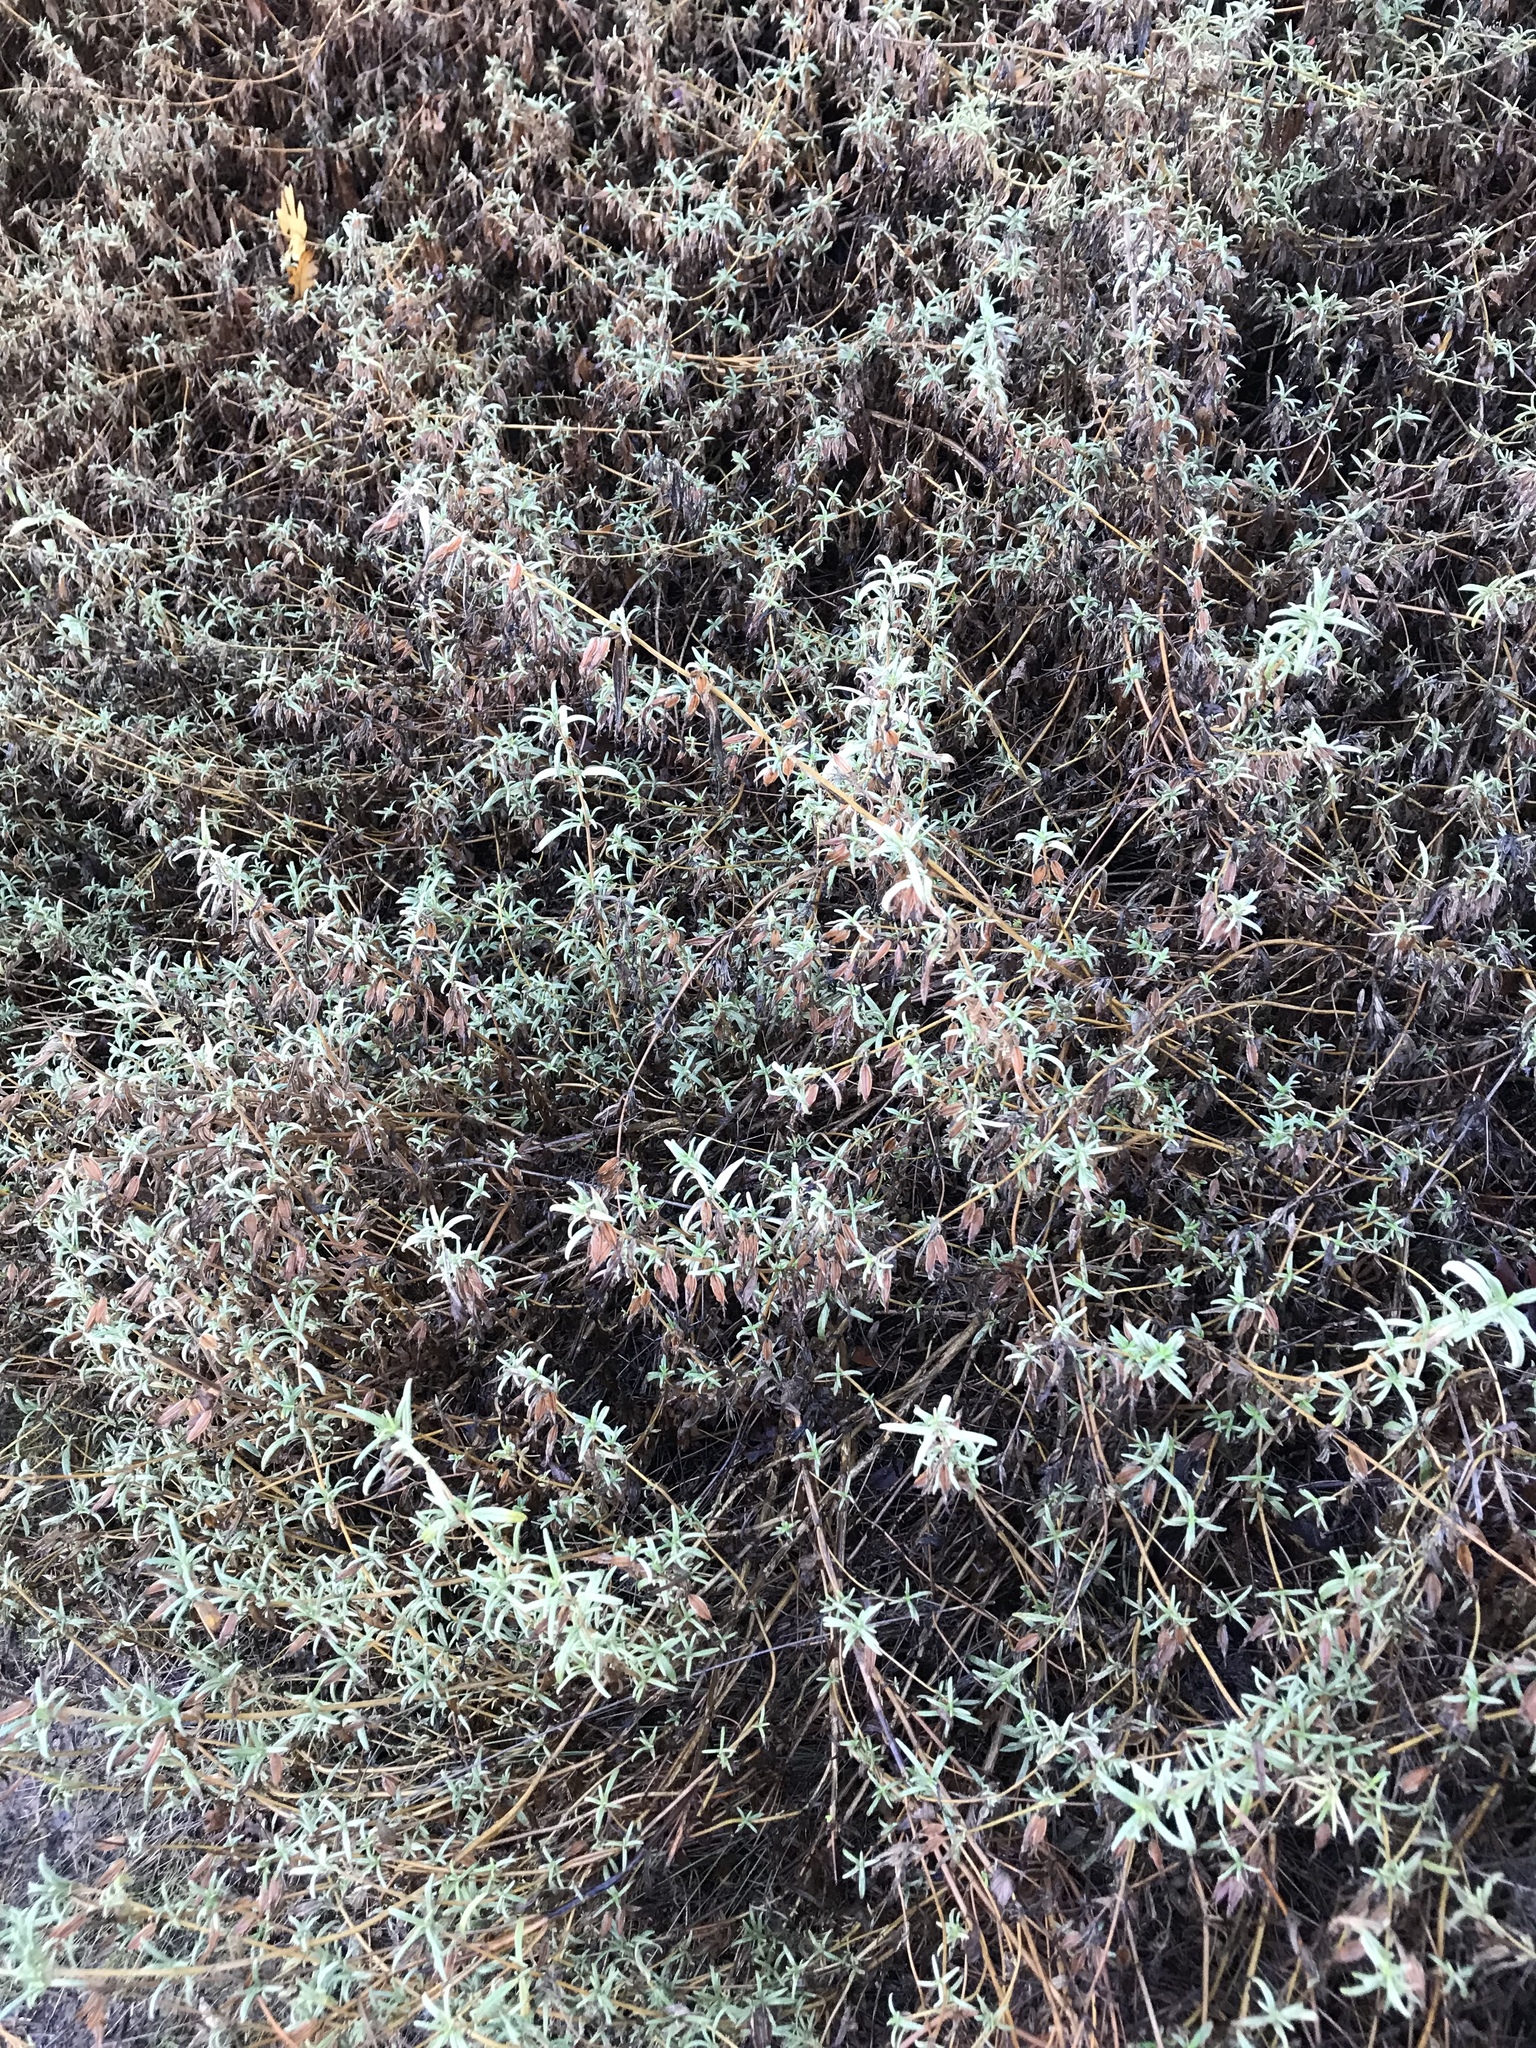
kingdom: Plantae
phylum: Tracheophyta
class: Magnoliopsida
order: Lamiales
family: Phrymaceae
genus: Diplacus
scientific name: Diplacus aurantiacus
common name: Bush monkey-flower
